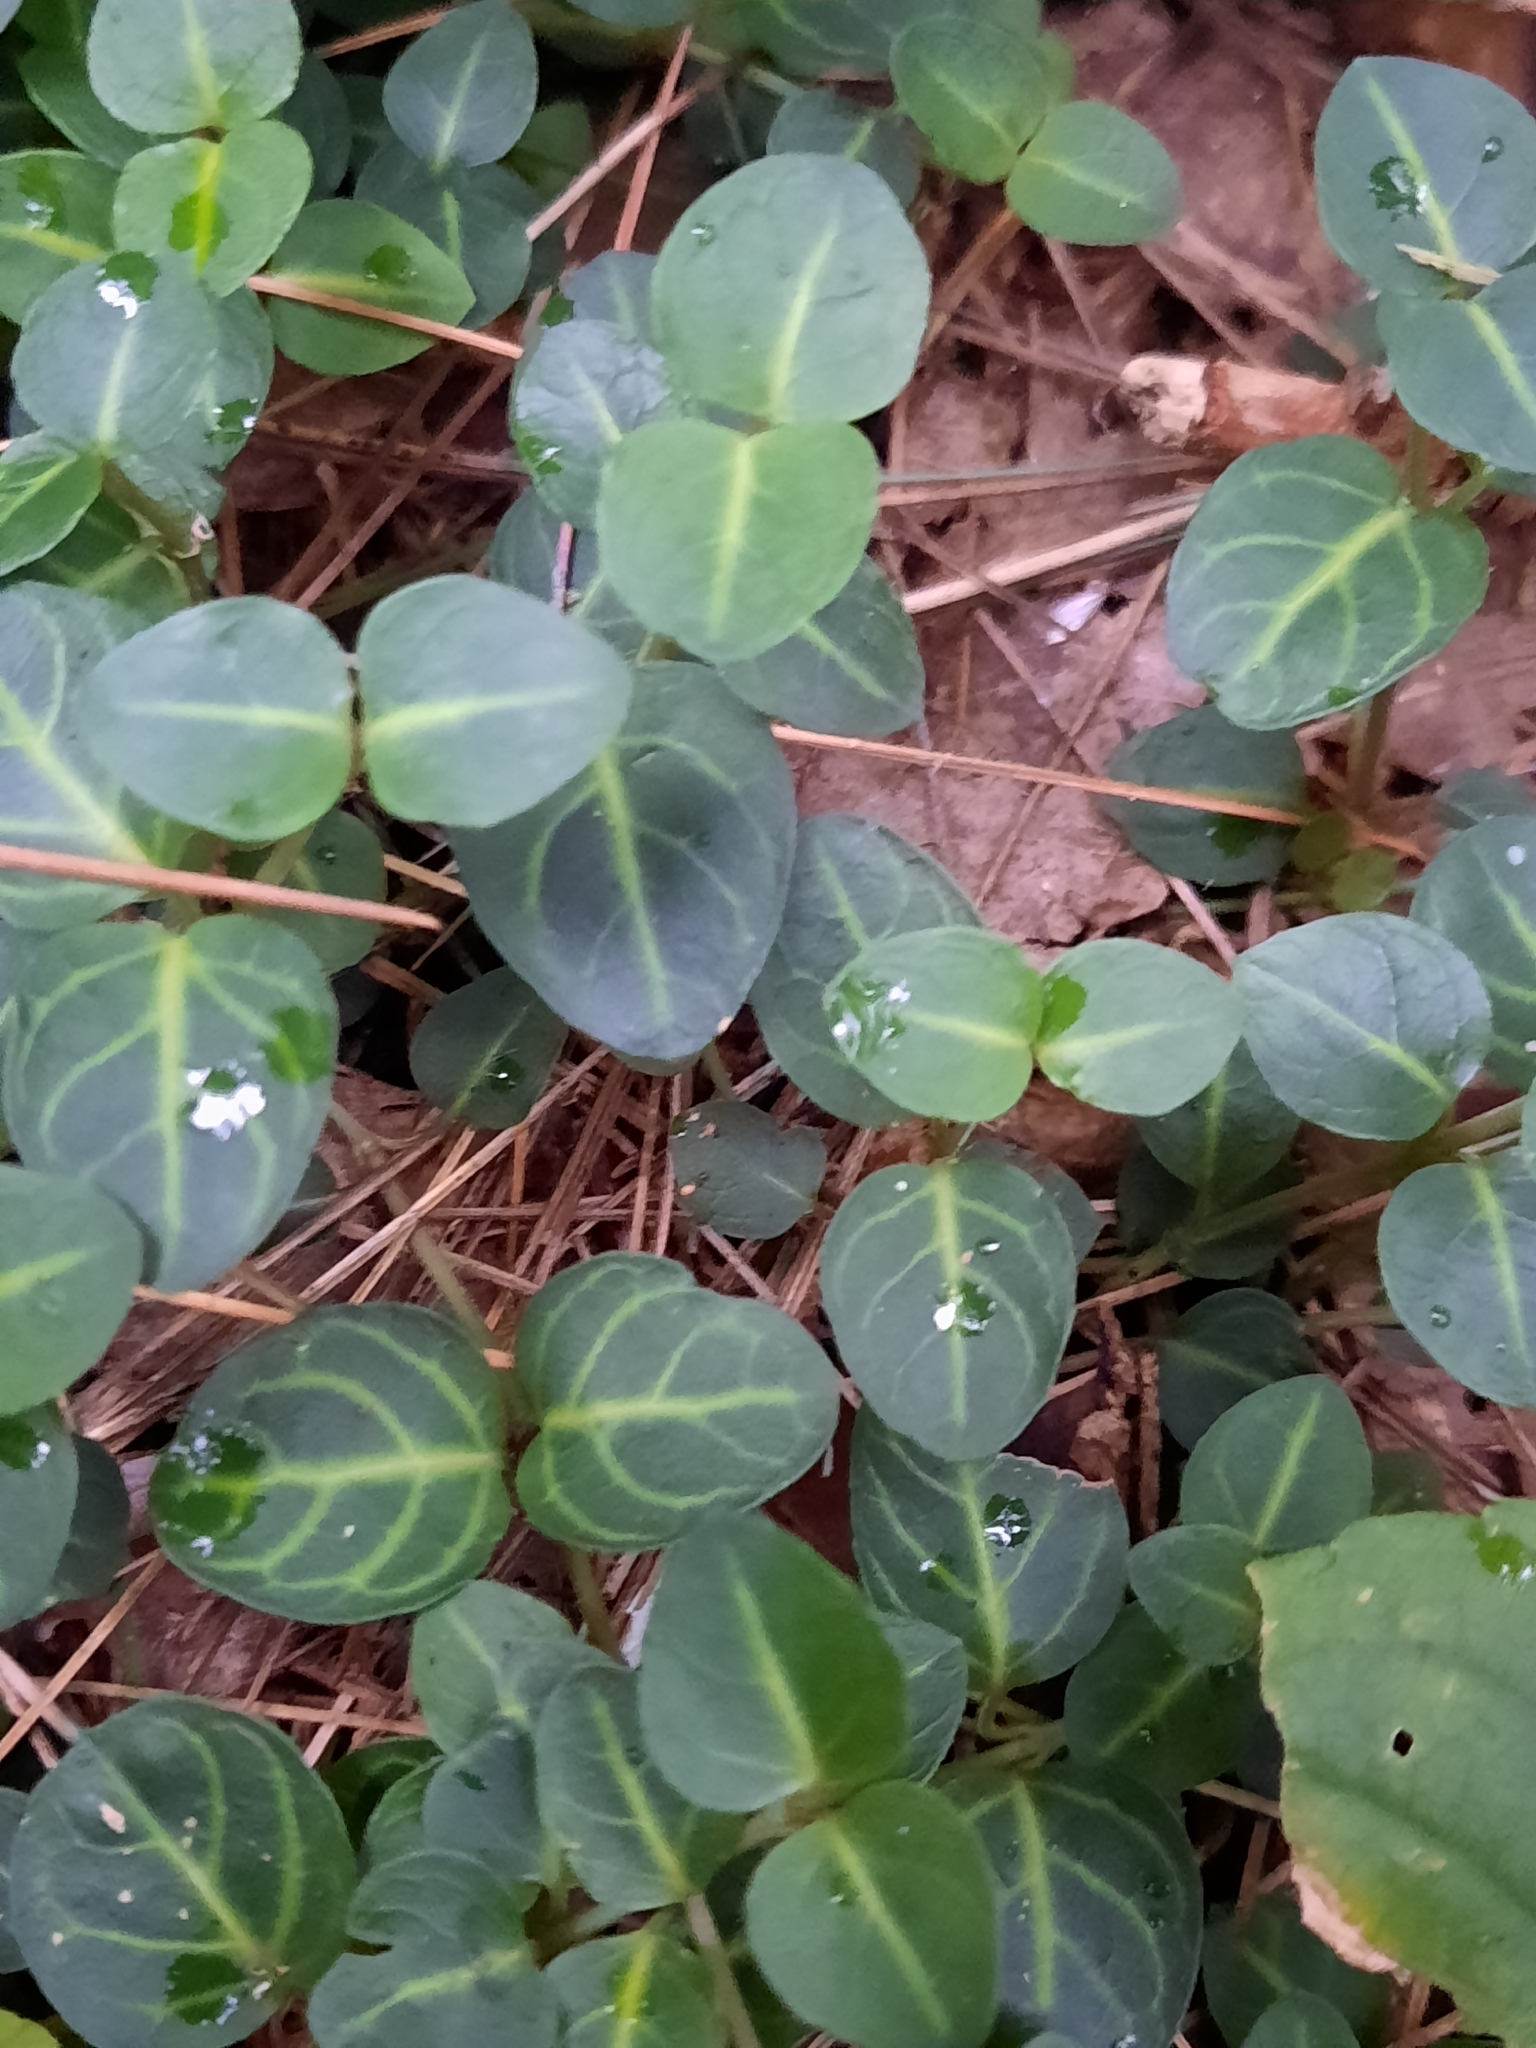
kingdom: Plantae
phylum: Tracheophyta
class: Magnoliopsida
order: Gentianales
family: Rubiaceae
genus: Mitchella
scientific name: Mitchella repens
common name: Partridge-berry
